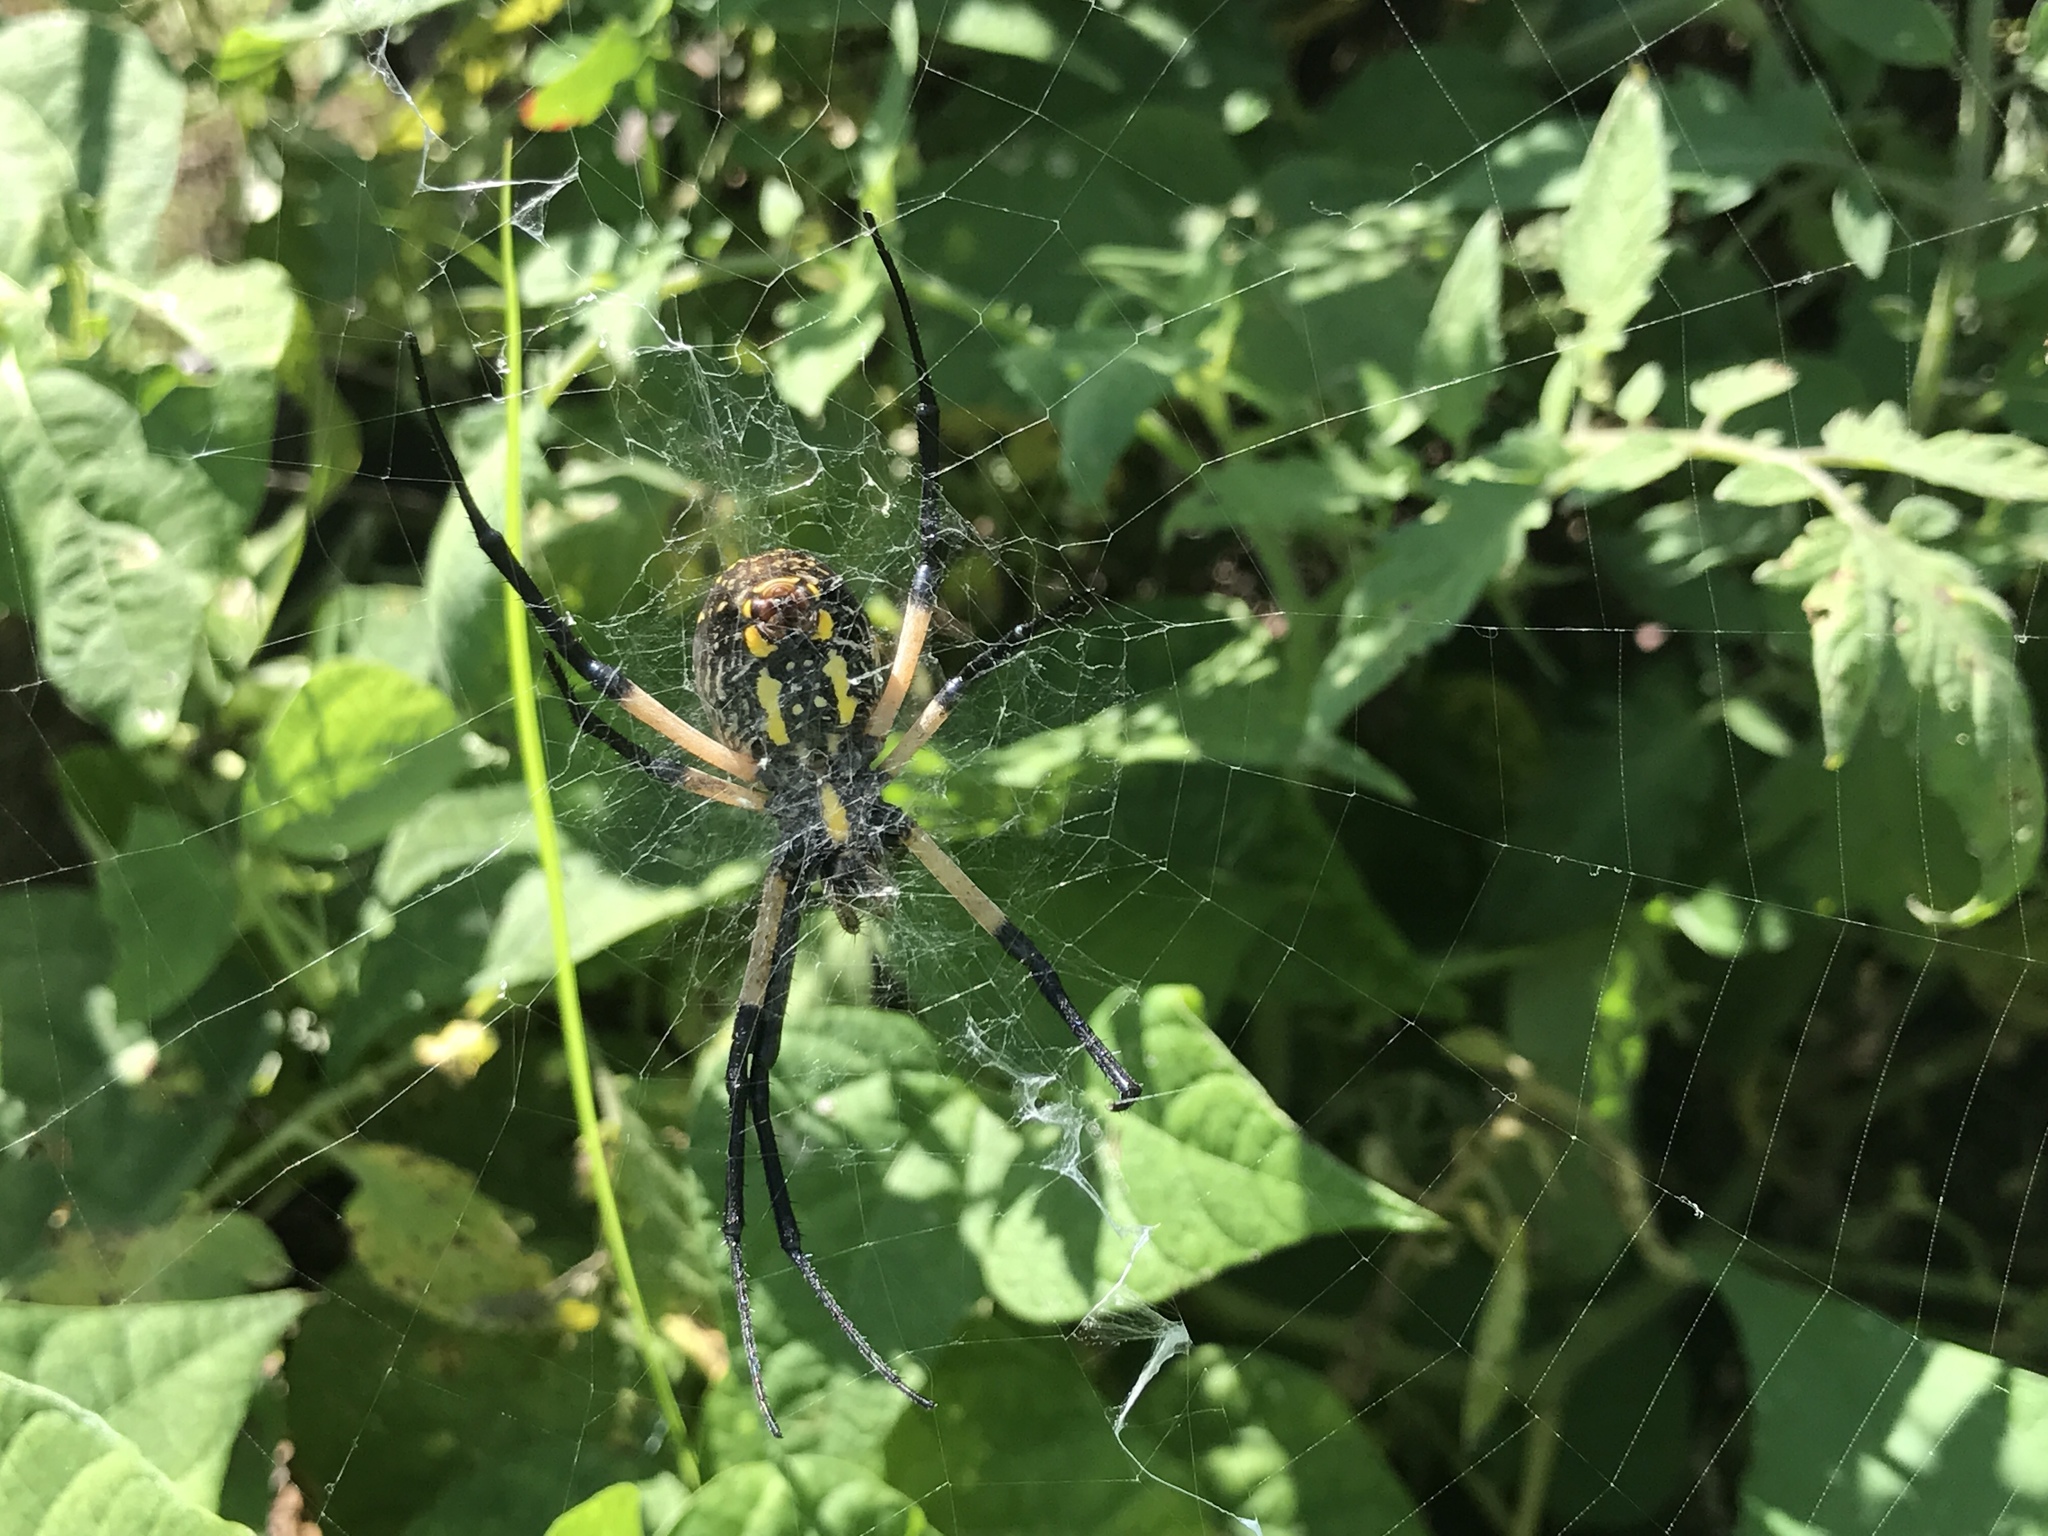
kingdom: Animalia
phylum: Arthropoda
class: Arachnida
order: Araneae
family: Araneidae
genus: Argiope
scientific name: Argiope aurantia
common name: Orb weavers
